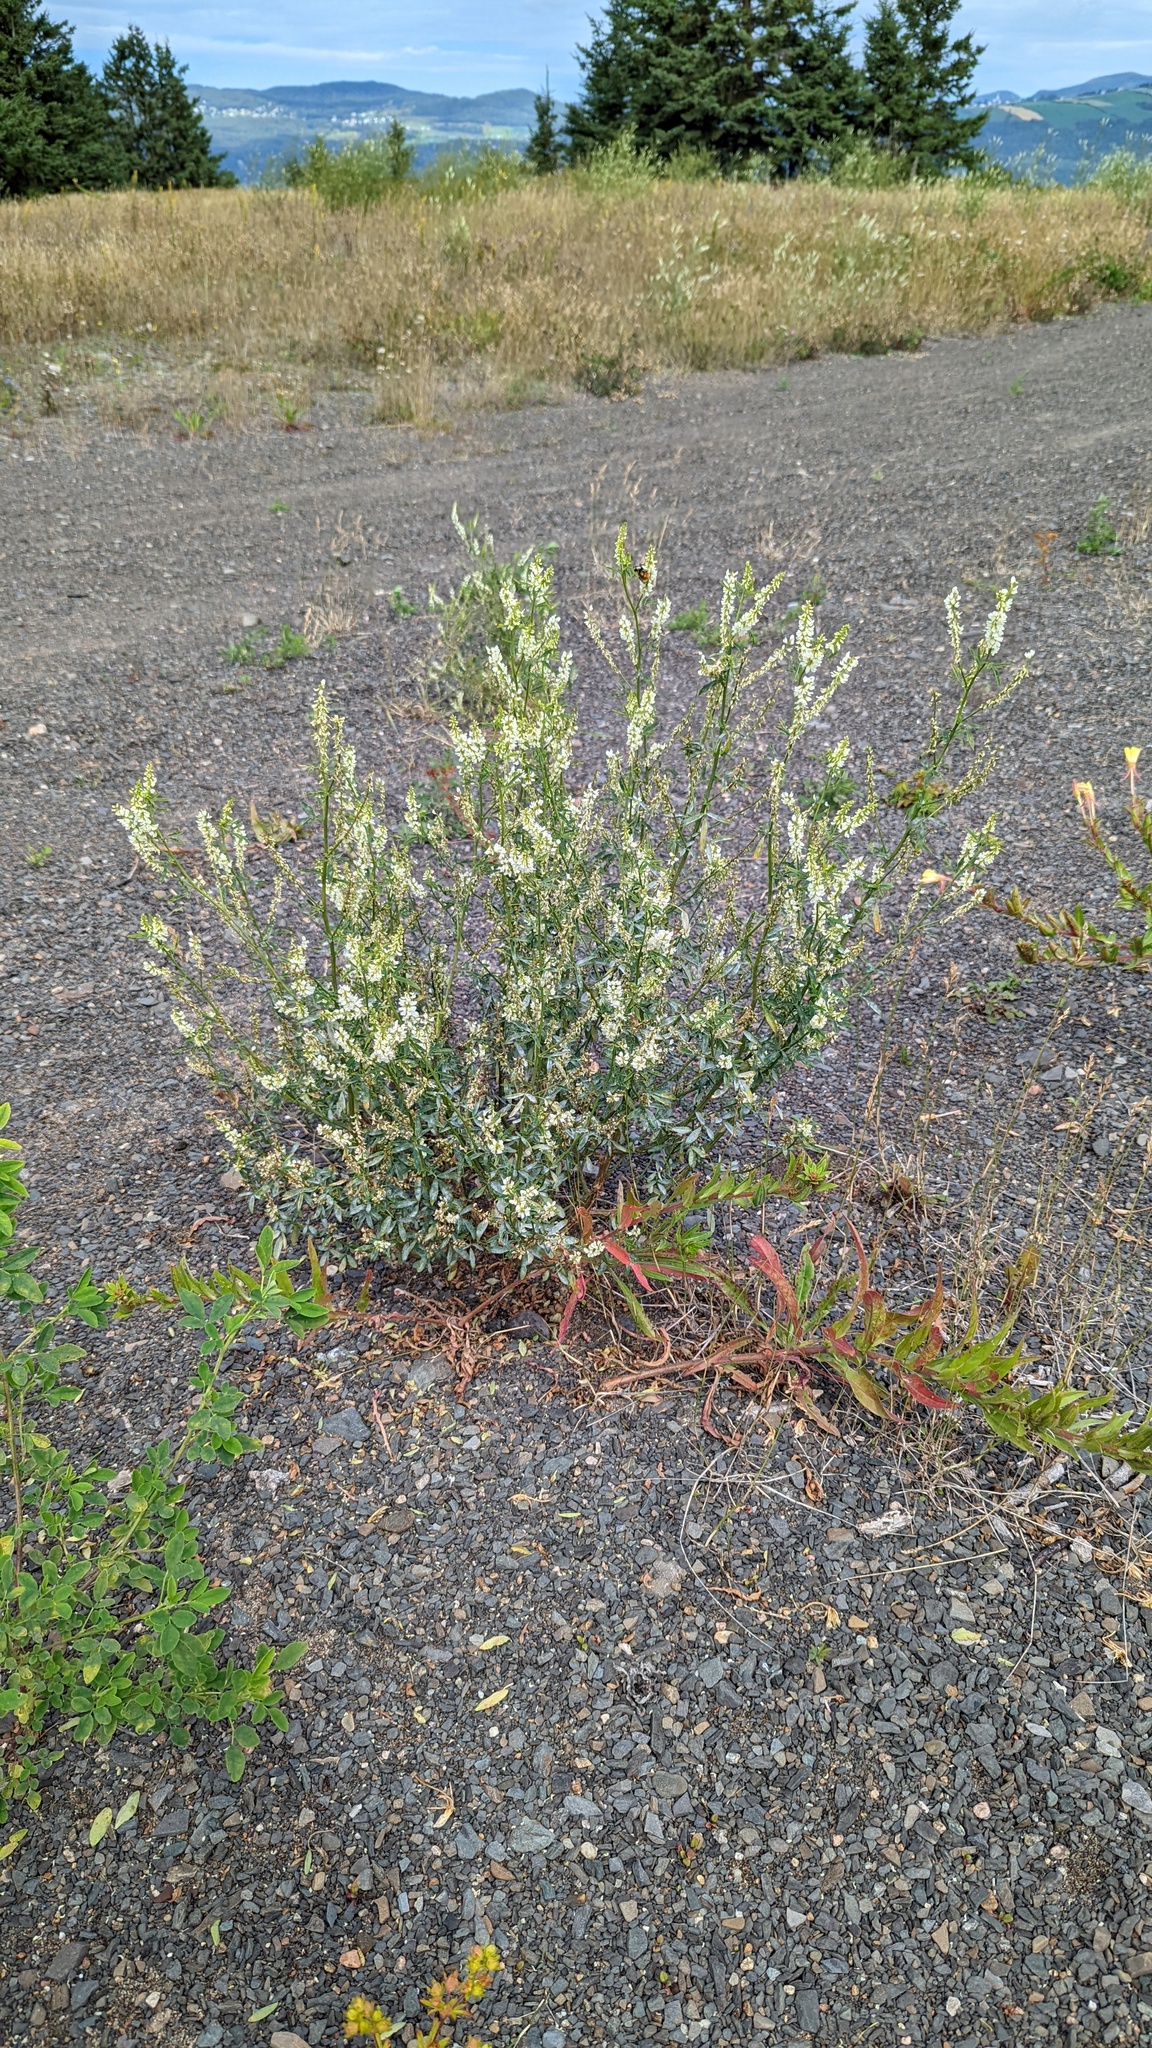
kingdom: Plantae
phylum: Tracheophyta
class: Magnoliopsida
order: Fabales
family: Fabaceae
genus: Melilotus
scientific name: Melilotus albus
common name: White melilot
